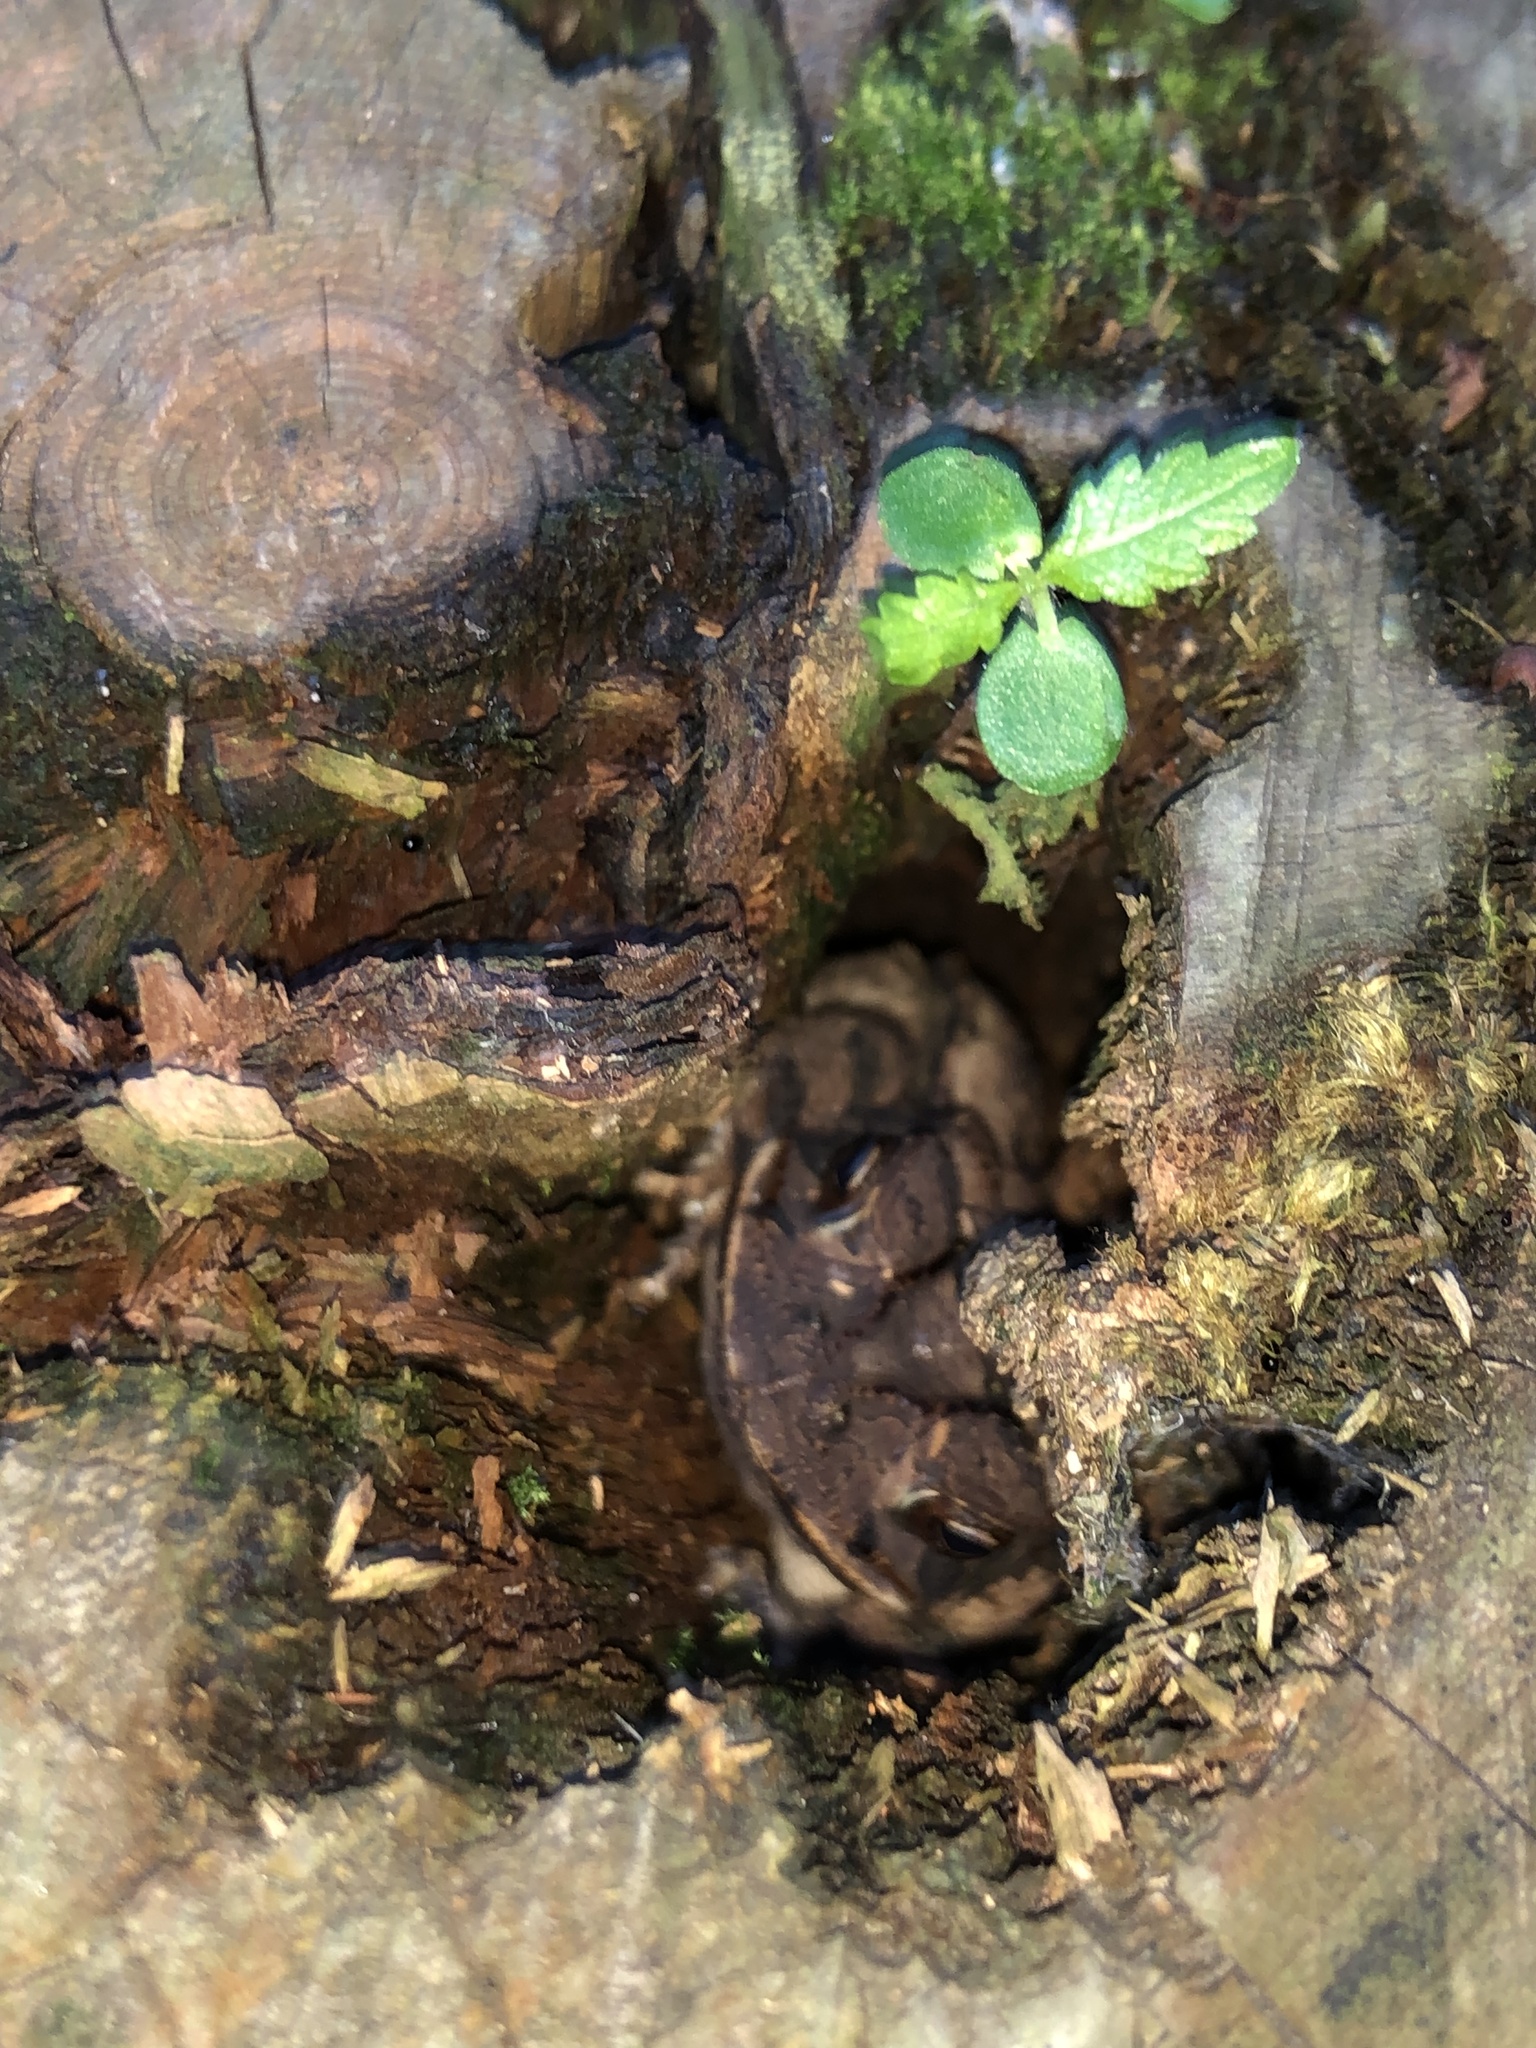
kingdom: Animalia
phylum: Chordata
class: Amphibia
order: Anura
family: Bufonidae
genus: Incilius
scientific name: Incilius nebulifer
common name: Gulf coast toad
